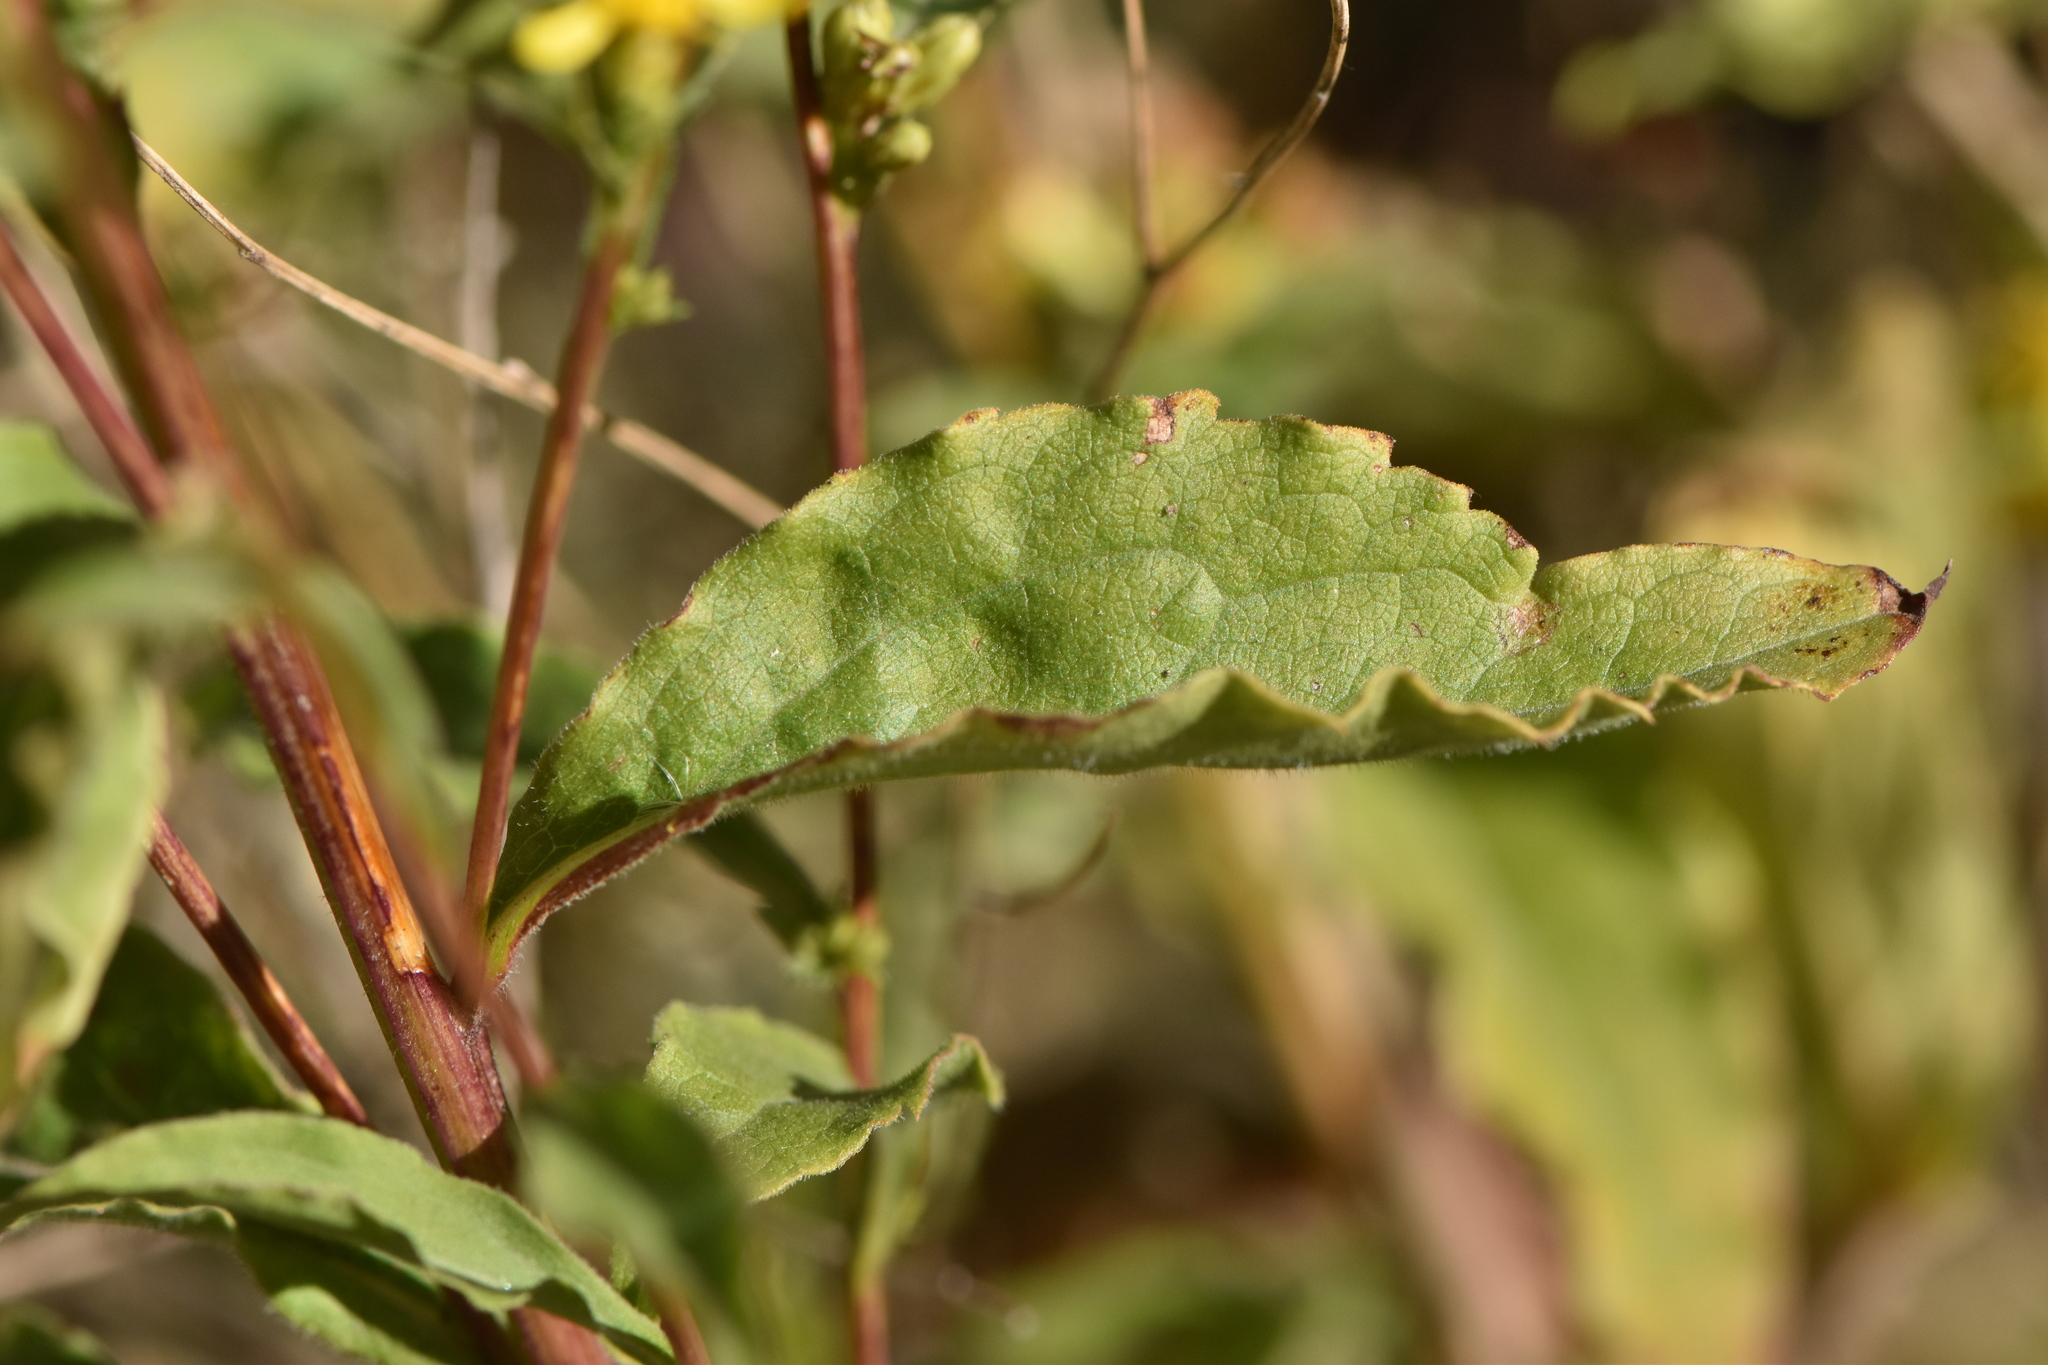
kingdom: Plantae
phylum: Tracheophyta
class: Magnoliopsida
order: Asterales
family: Asteraceae
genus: Solidago
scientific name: Solidago virgaurea
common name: Goldenrod
